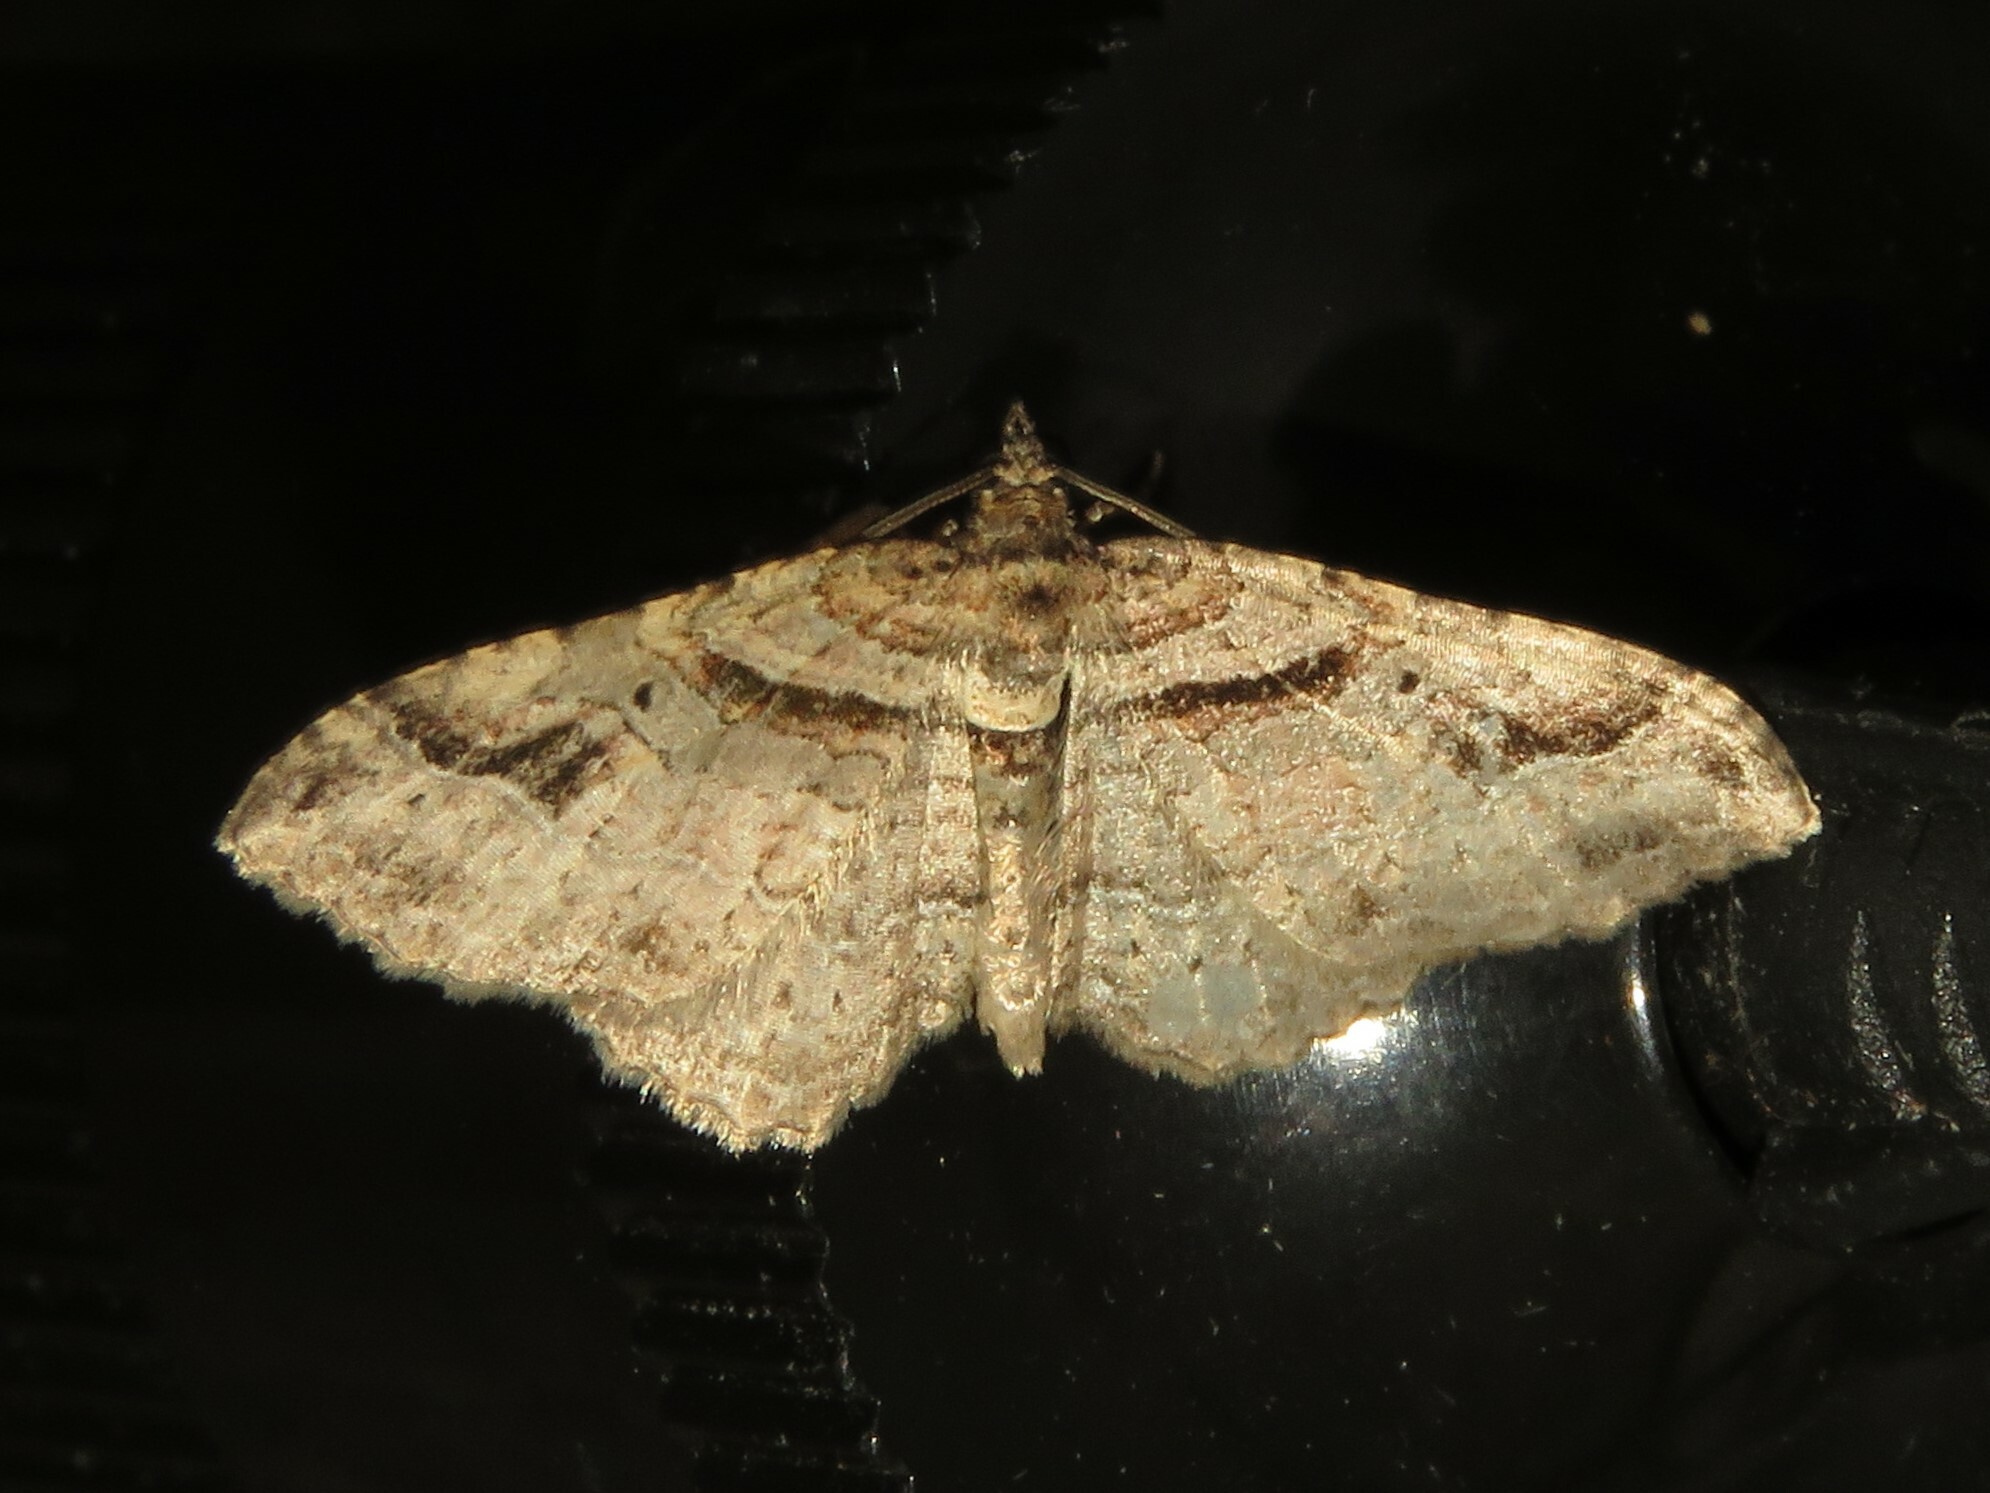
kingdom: Animalia
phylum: Arthropoda
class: Insecta
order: Lepidoptera
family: Geometridae
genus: Costaconvexa
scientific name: Costaconvexa centrostrigaria
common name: Bent-line carpet
